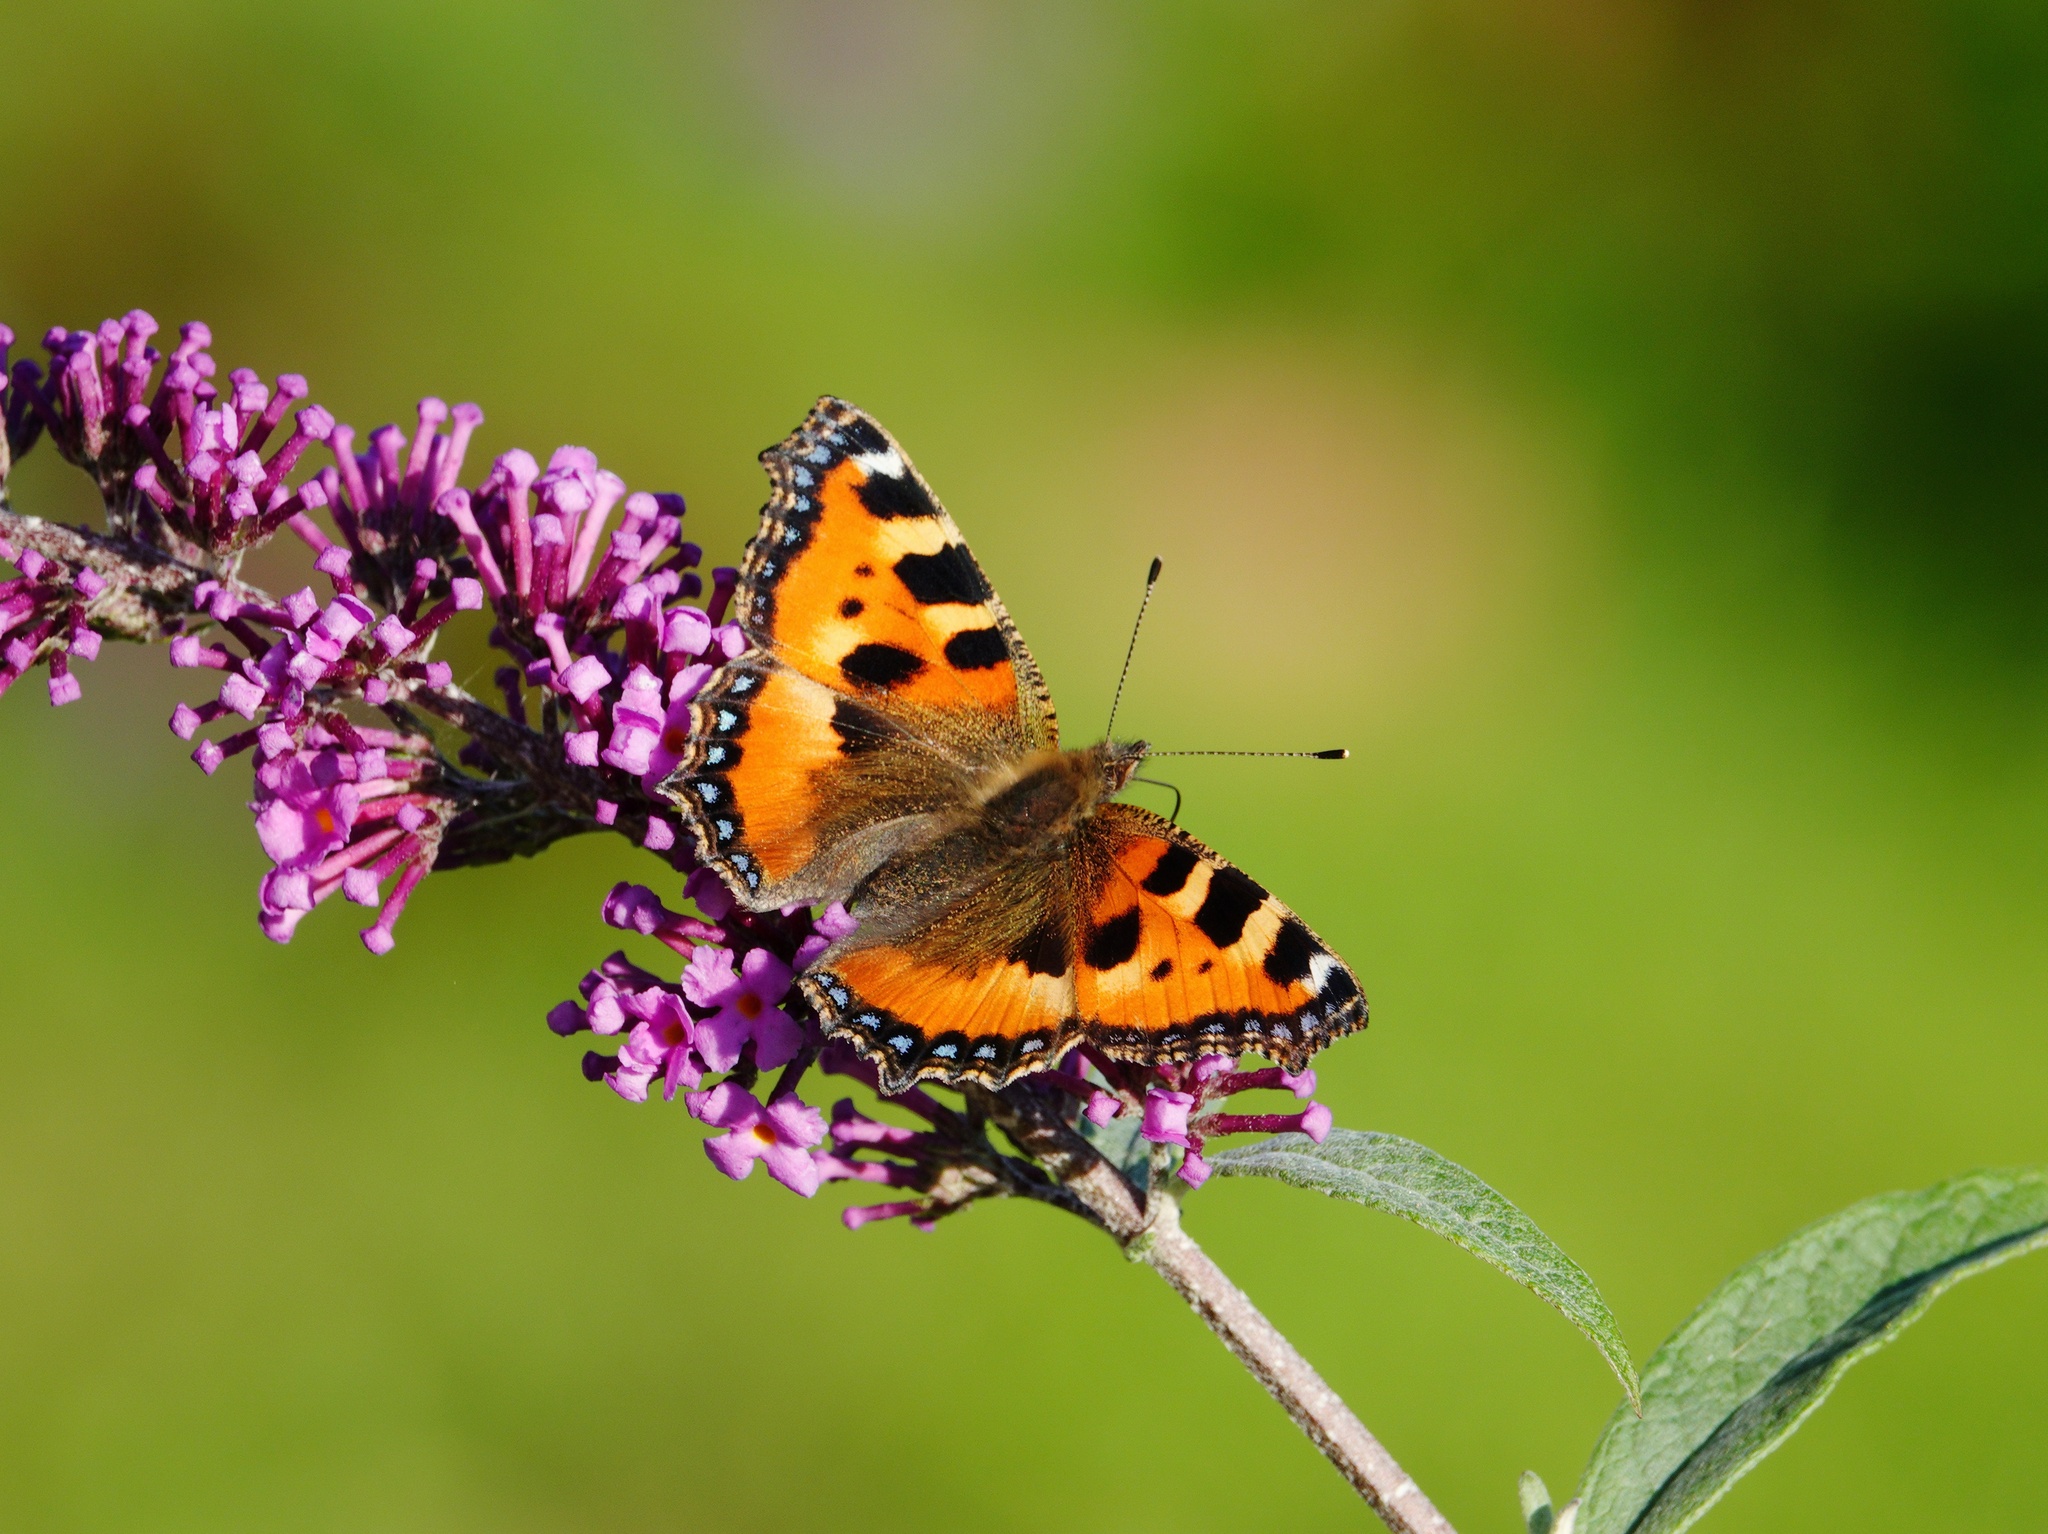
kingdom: Animalia
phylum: Arthropoda
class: Insecta
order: Lepidoptera
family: Nymphalidae
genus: Aglais
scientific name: Aglais urticae
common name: Small tortoiseshell
